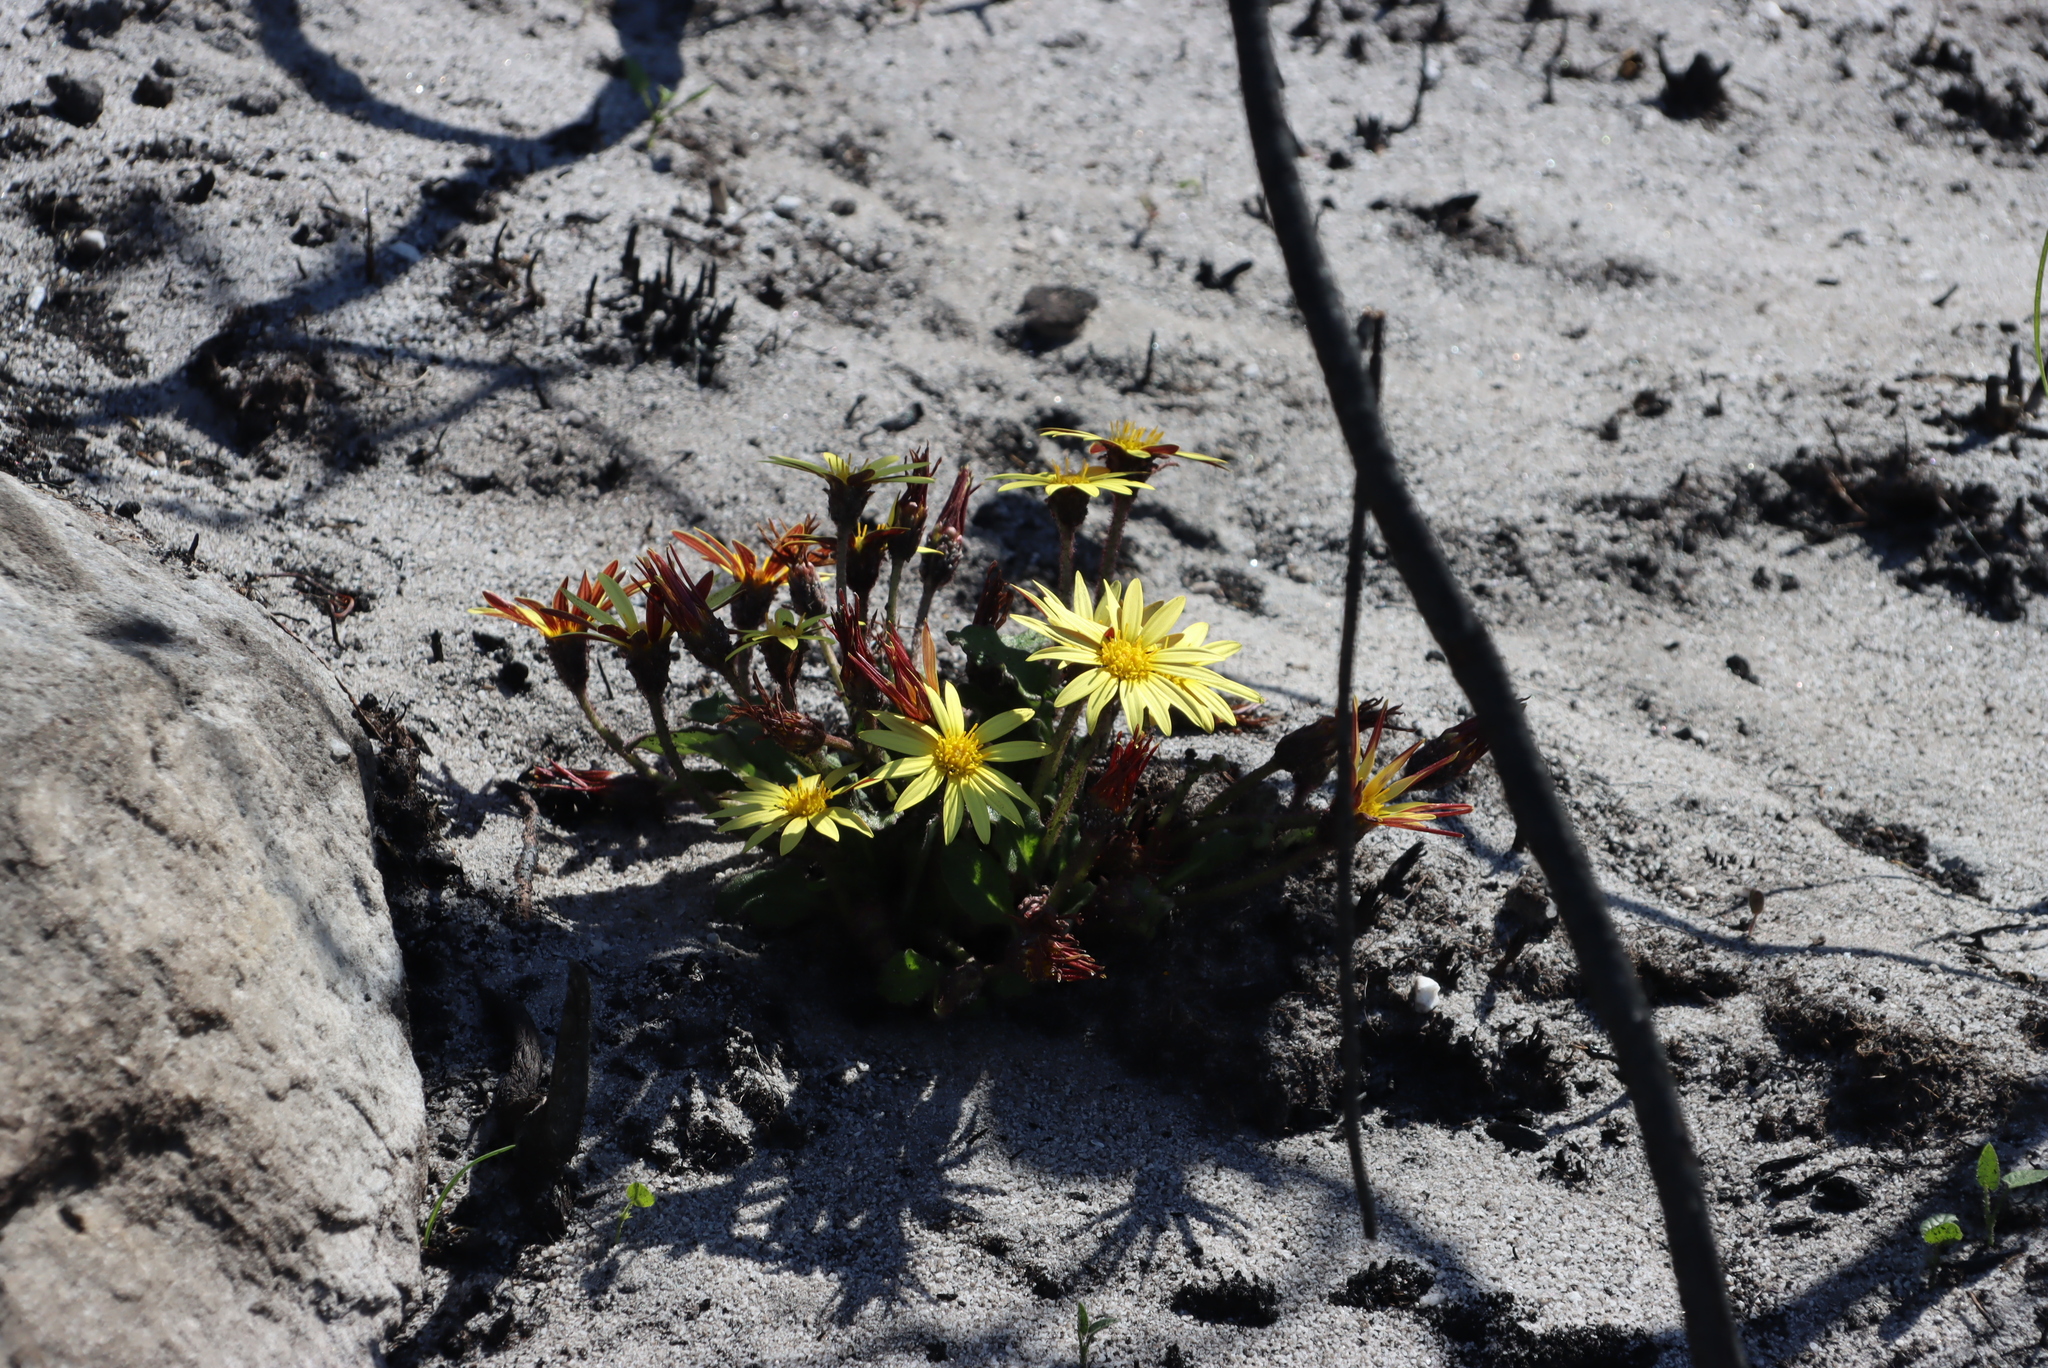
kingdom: Plantae
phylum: Tracheophyta
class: Magnoliopsida
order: Asterales
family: Asteraceae
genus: Haplocarpha
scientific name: Haplocarpha lanata
